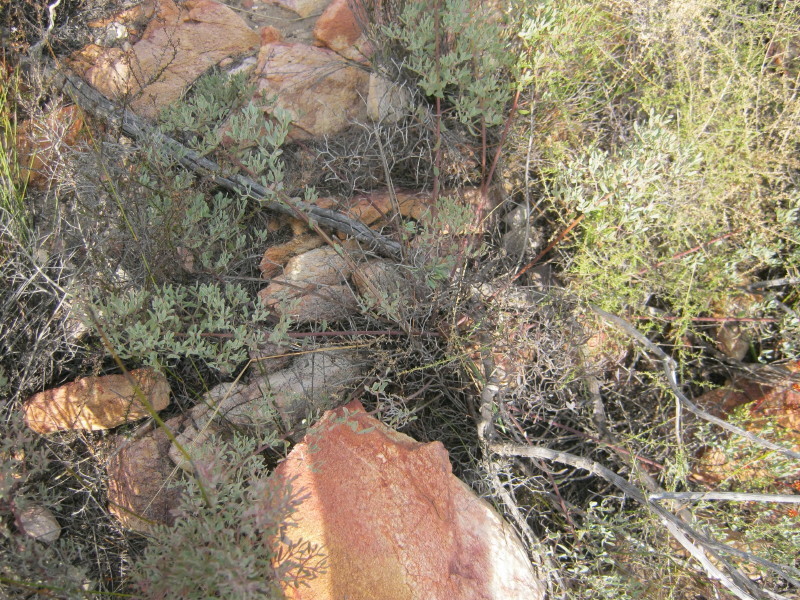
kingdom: Plantae
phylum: Tracheophyta
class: Magnoliopsida
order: Fabales
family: Fabaceae
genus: Rafnia
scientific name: Rafnia capensis
